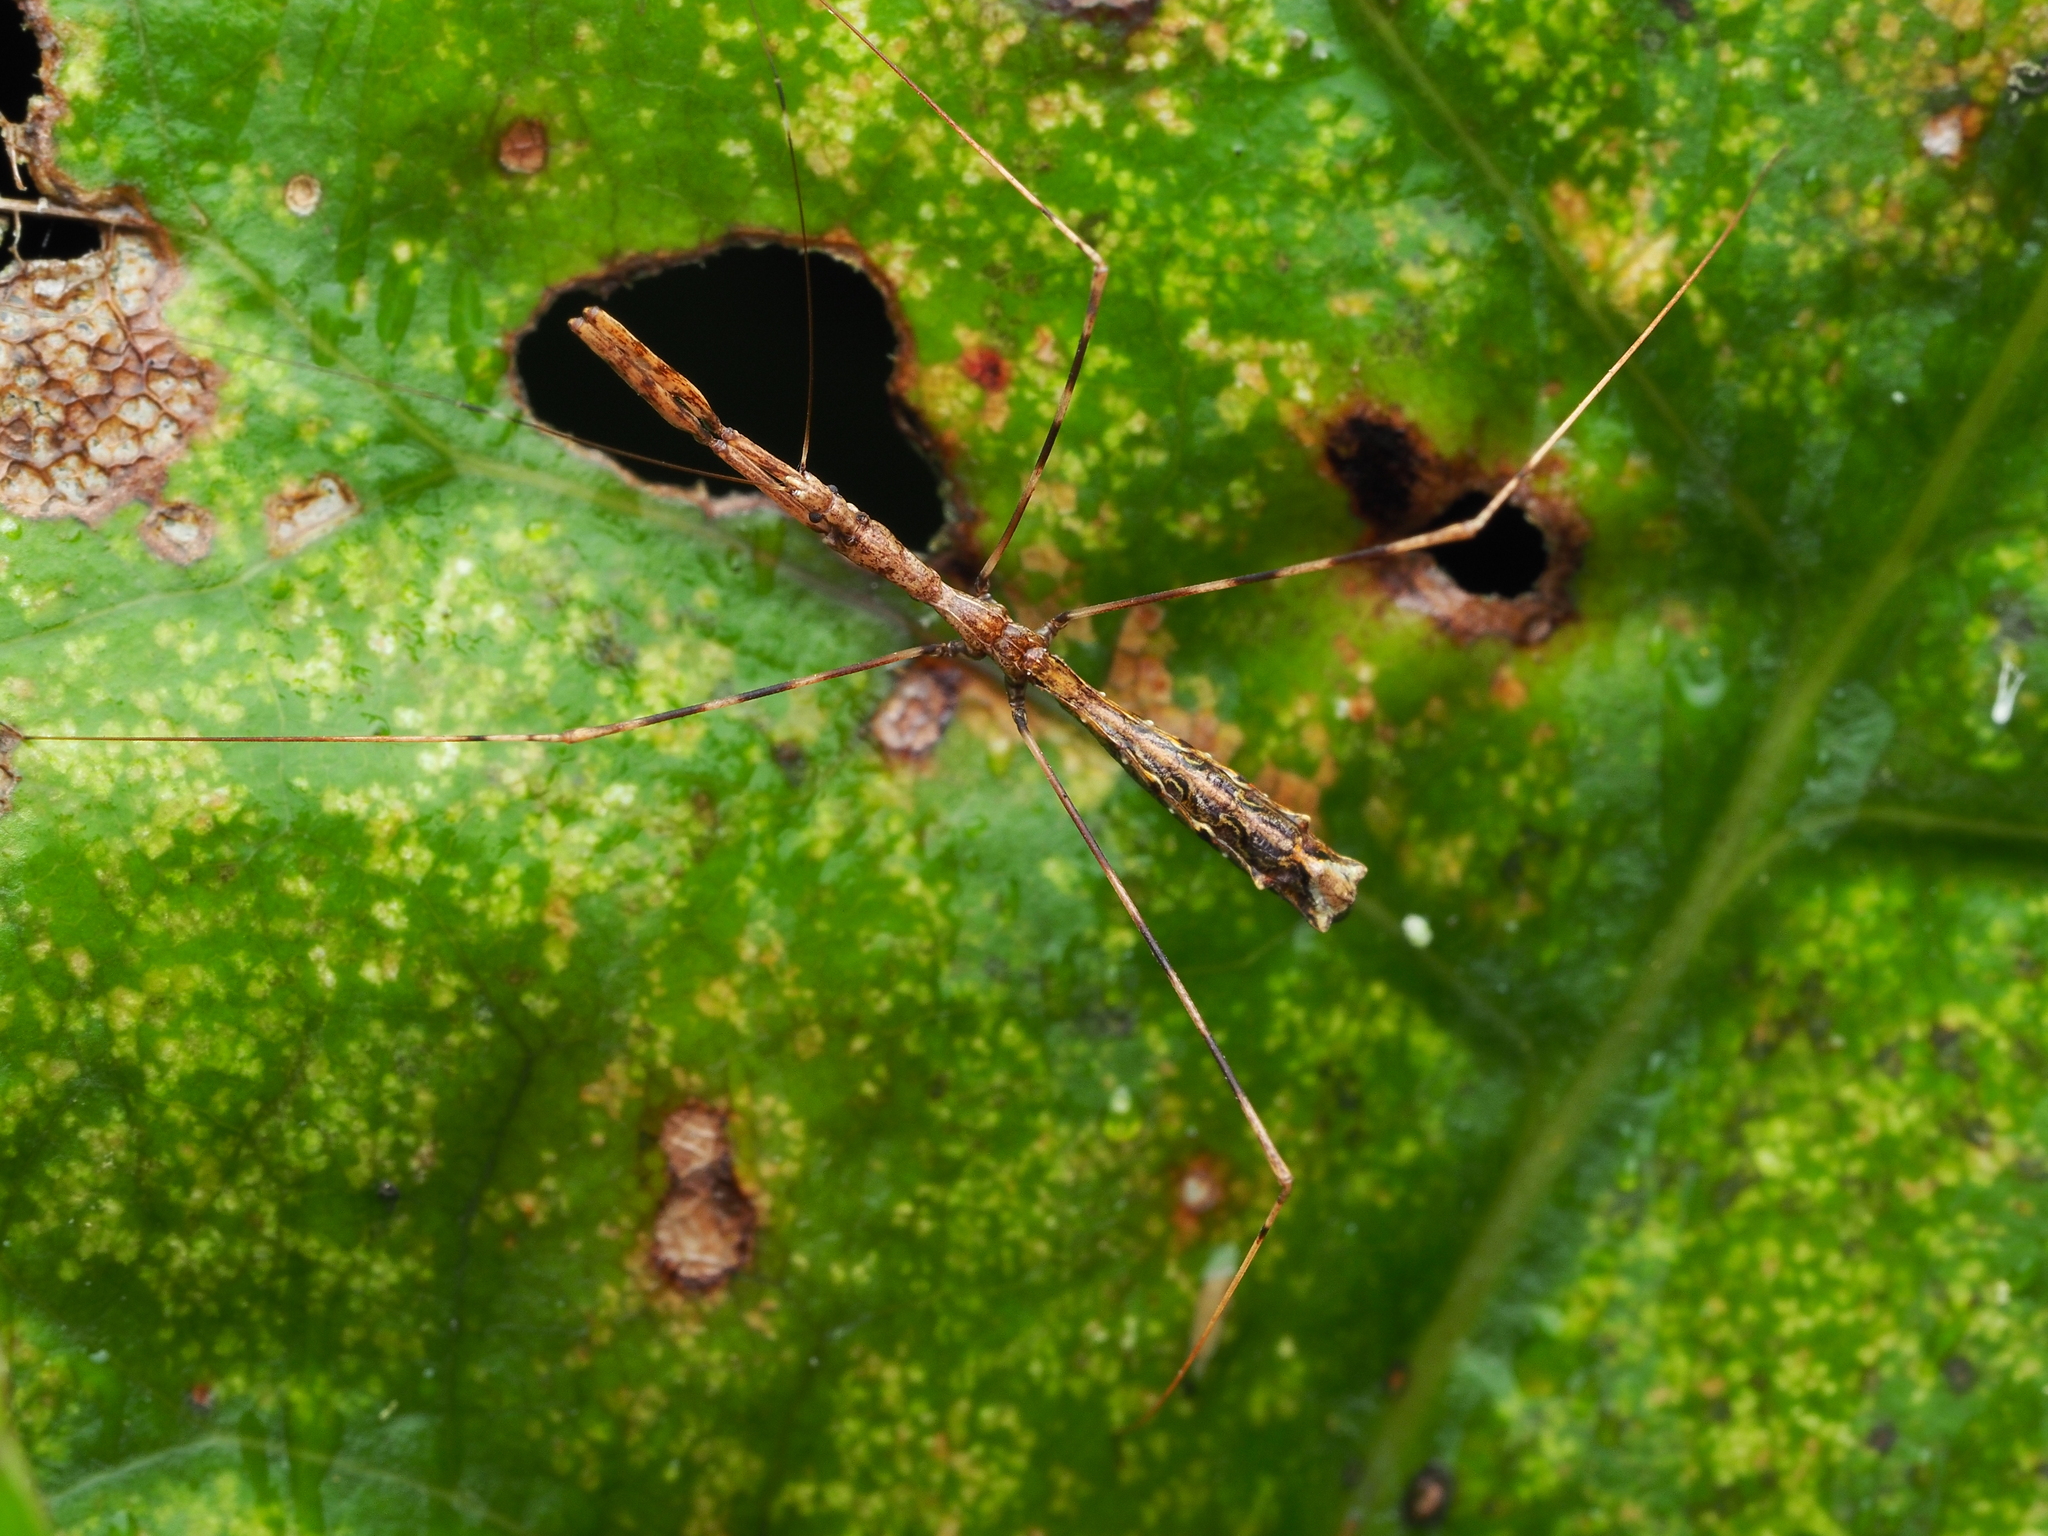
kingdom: Animalia
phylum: Arthropoda
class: Insecta
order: Hemiptera
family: Reduviidae
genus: Ploiaria
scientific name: Ploiaria antipodum
